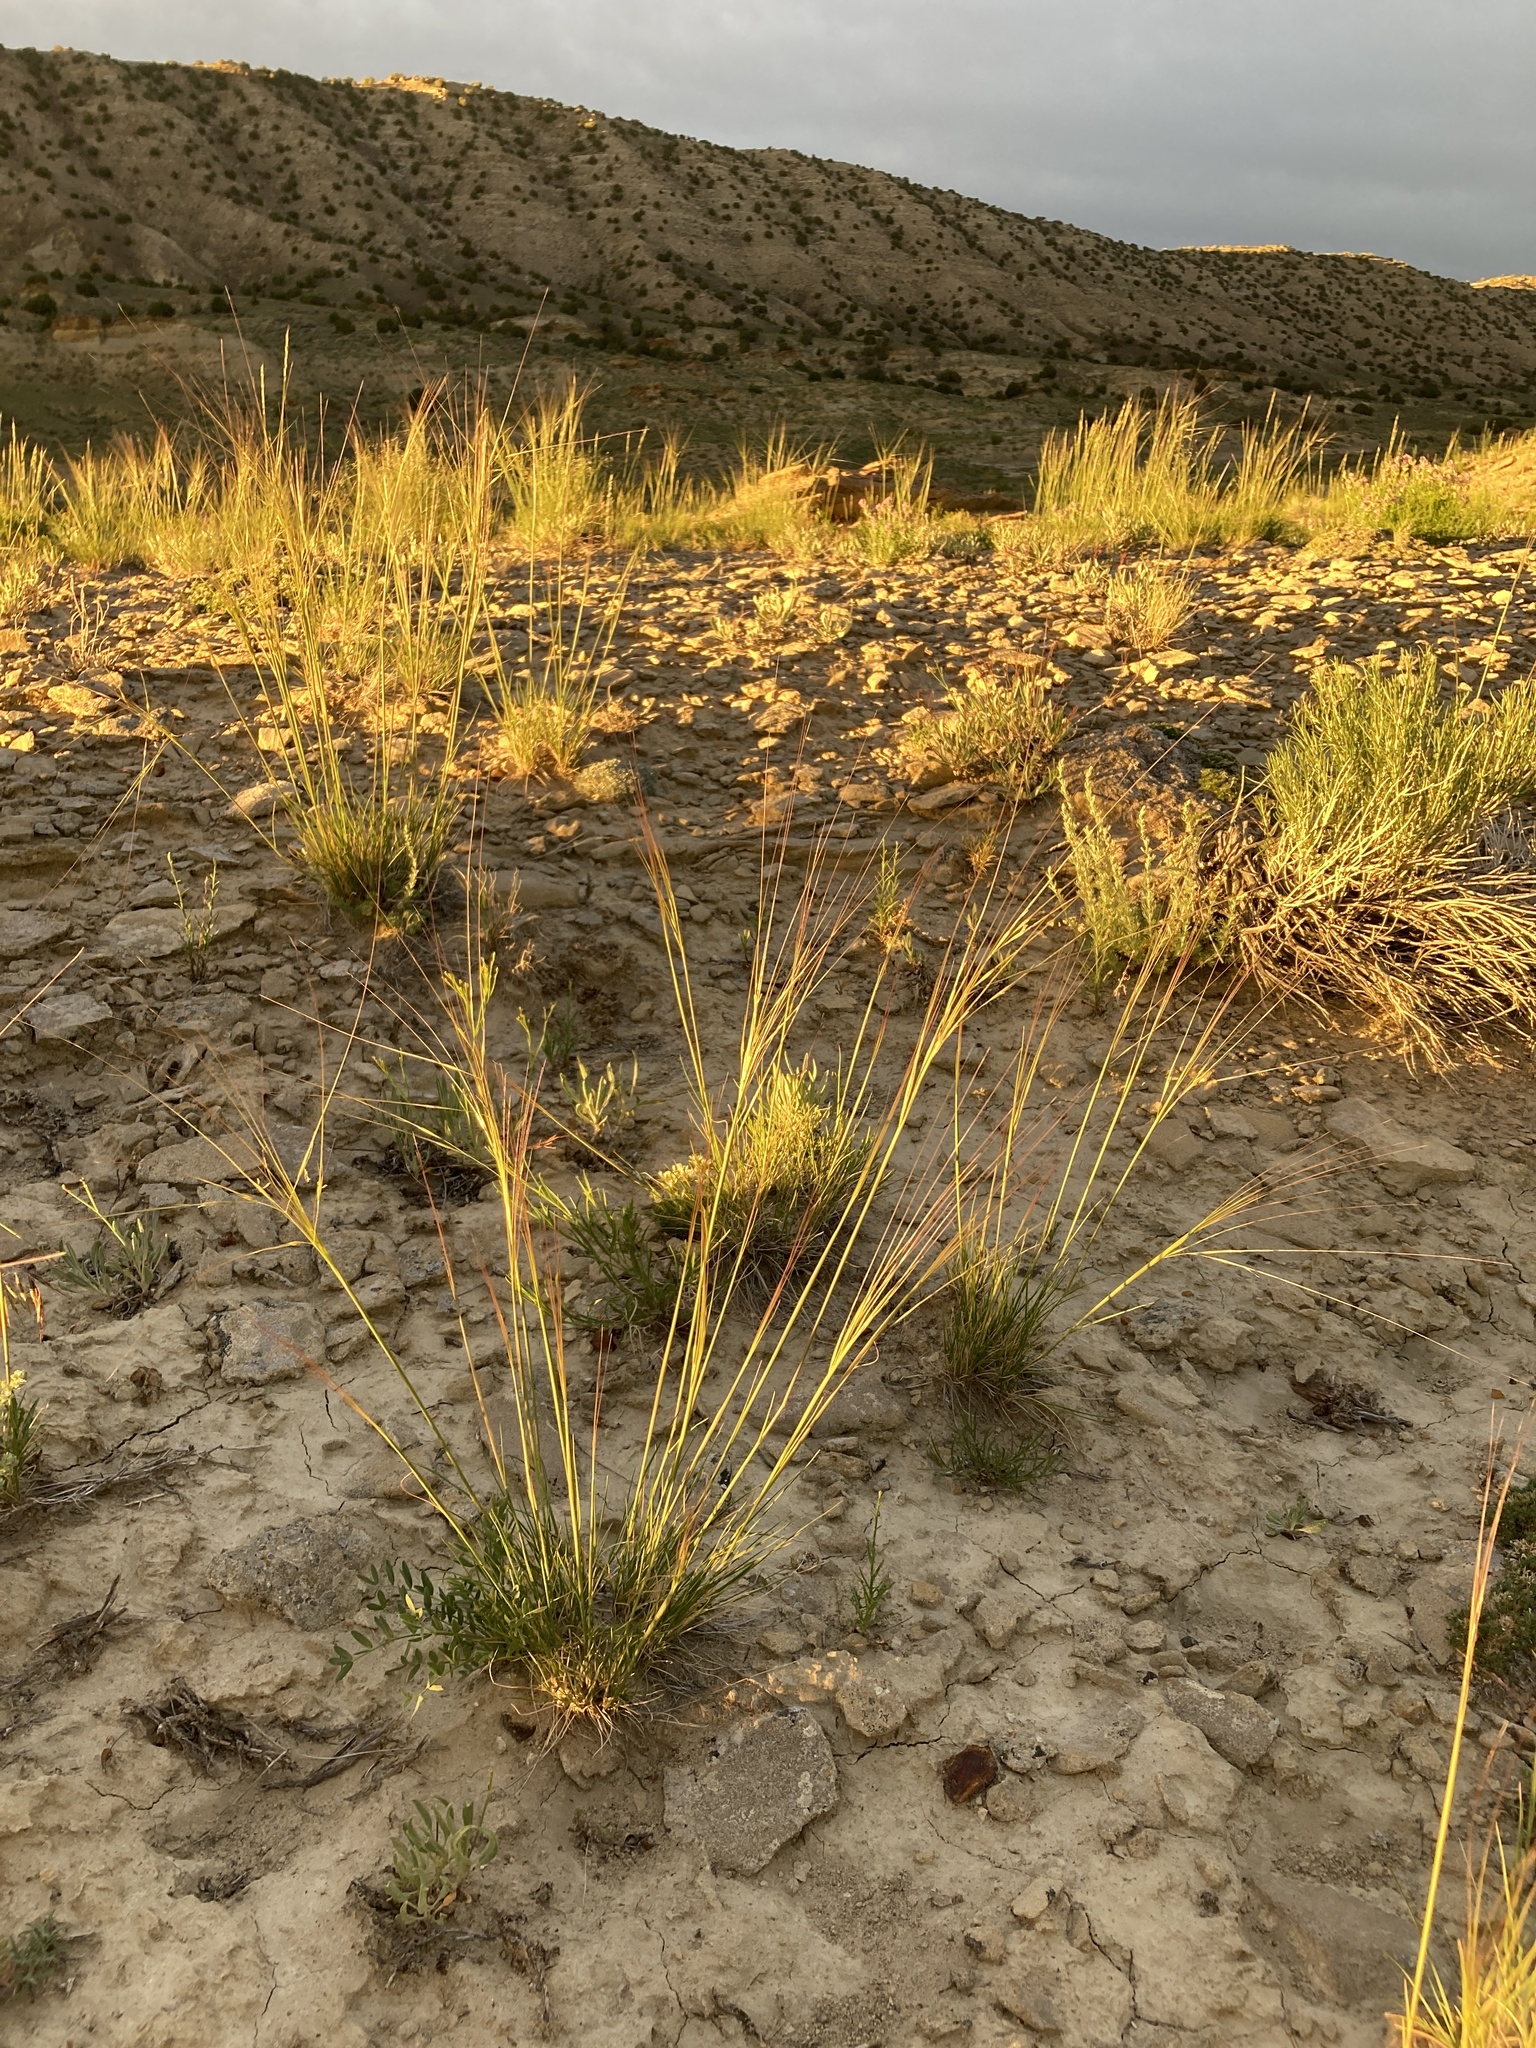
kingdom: Plantae
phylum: Tracheophyta
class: Liliopsida
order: Poales
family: Poaceae
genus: Hesperostipa
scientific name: Hesperostipa comata
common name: Needle-and-thread grass
